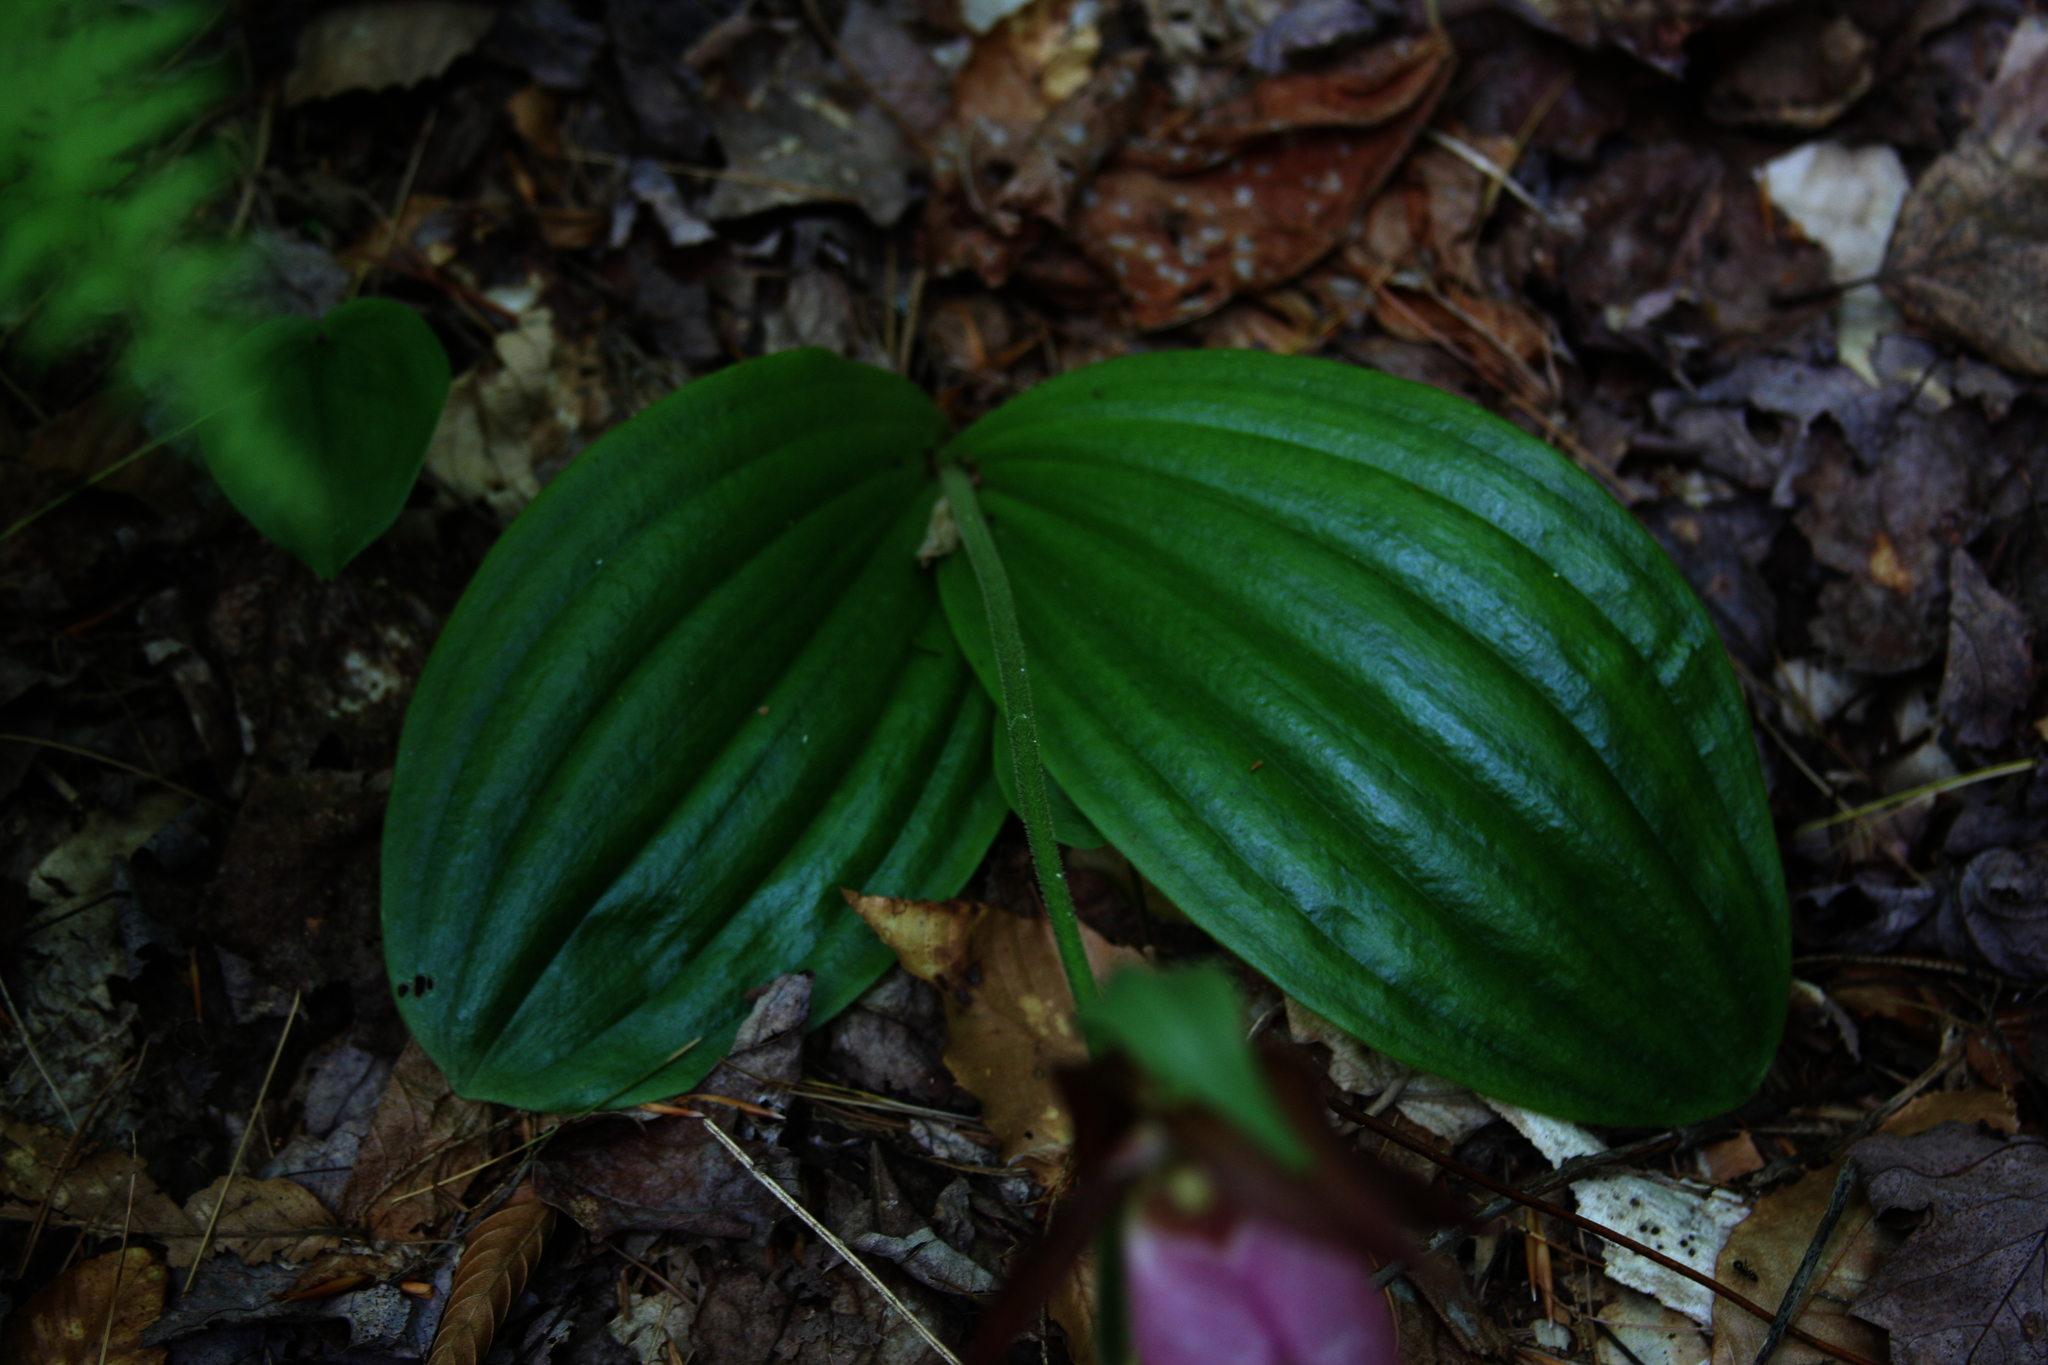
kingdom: Plantae
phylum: Tracheophyta
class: Liliopsida
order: Asparagales
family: Orchidaceae
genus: Cypripedium
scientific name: Cypripedium acaule
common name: Pink lady's-slipper
